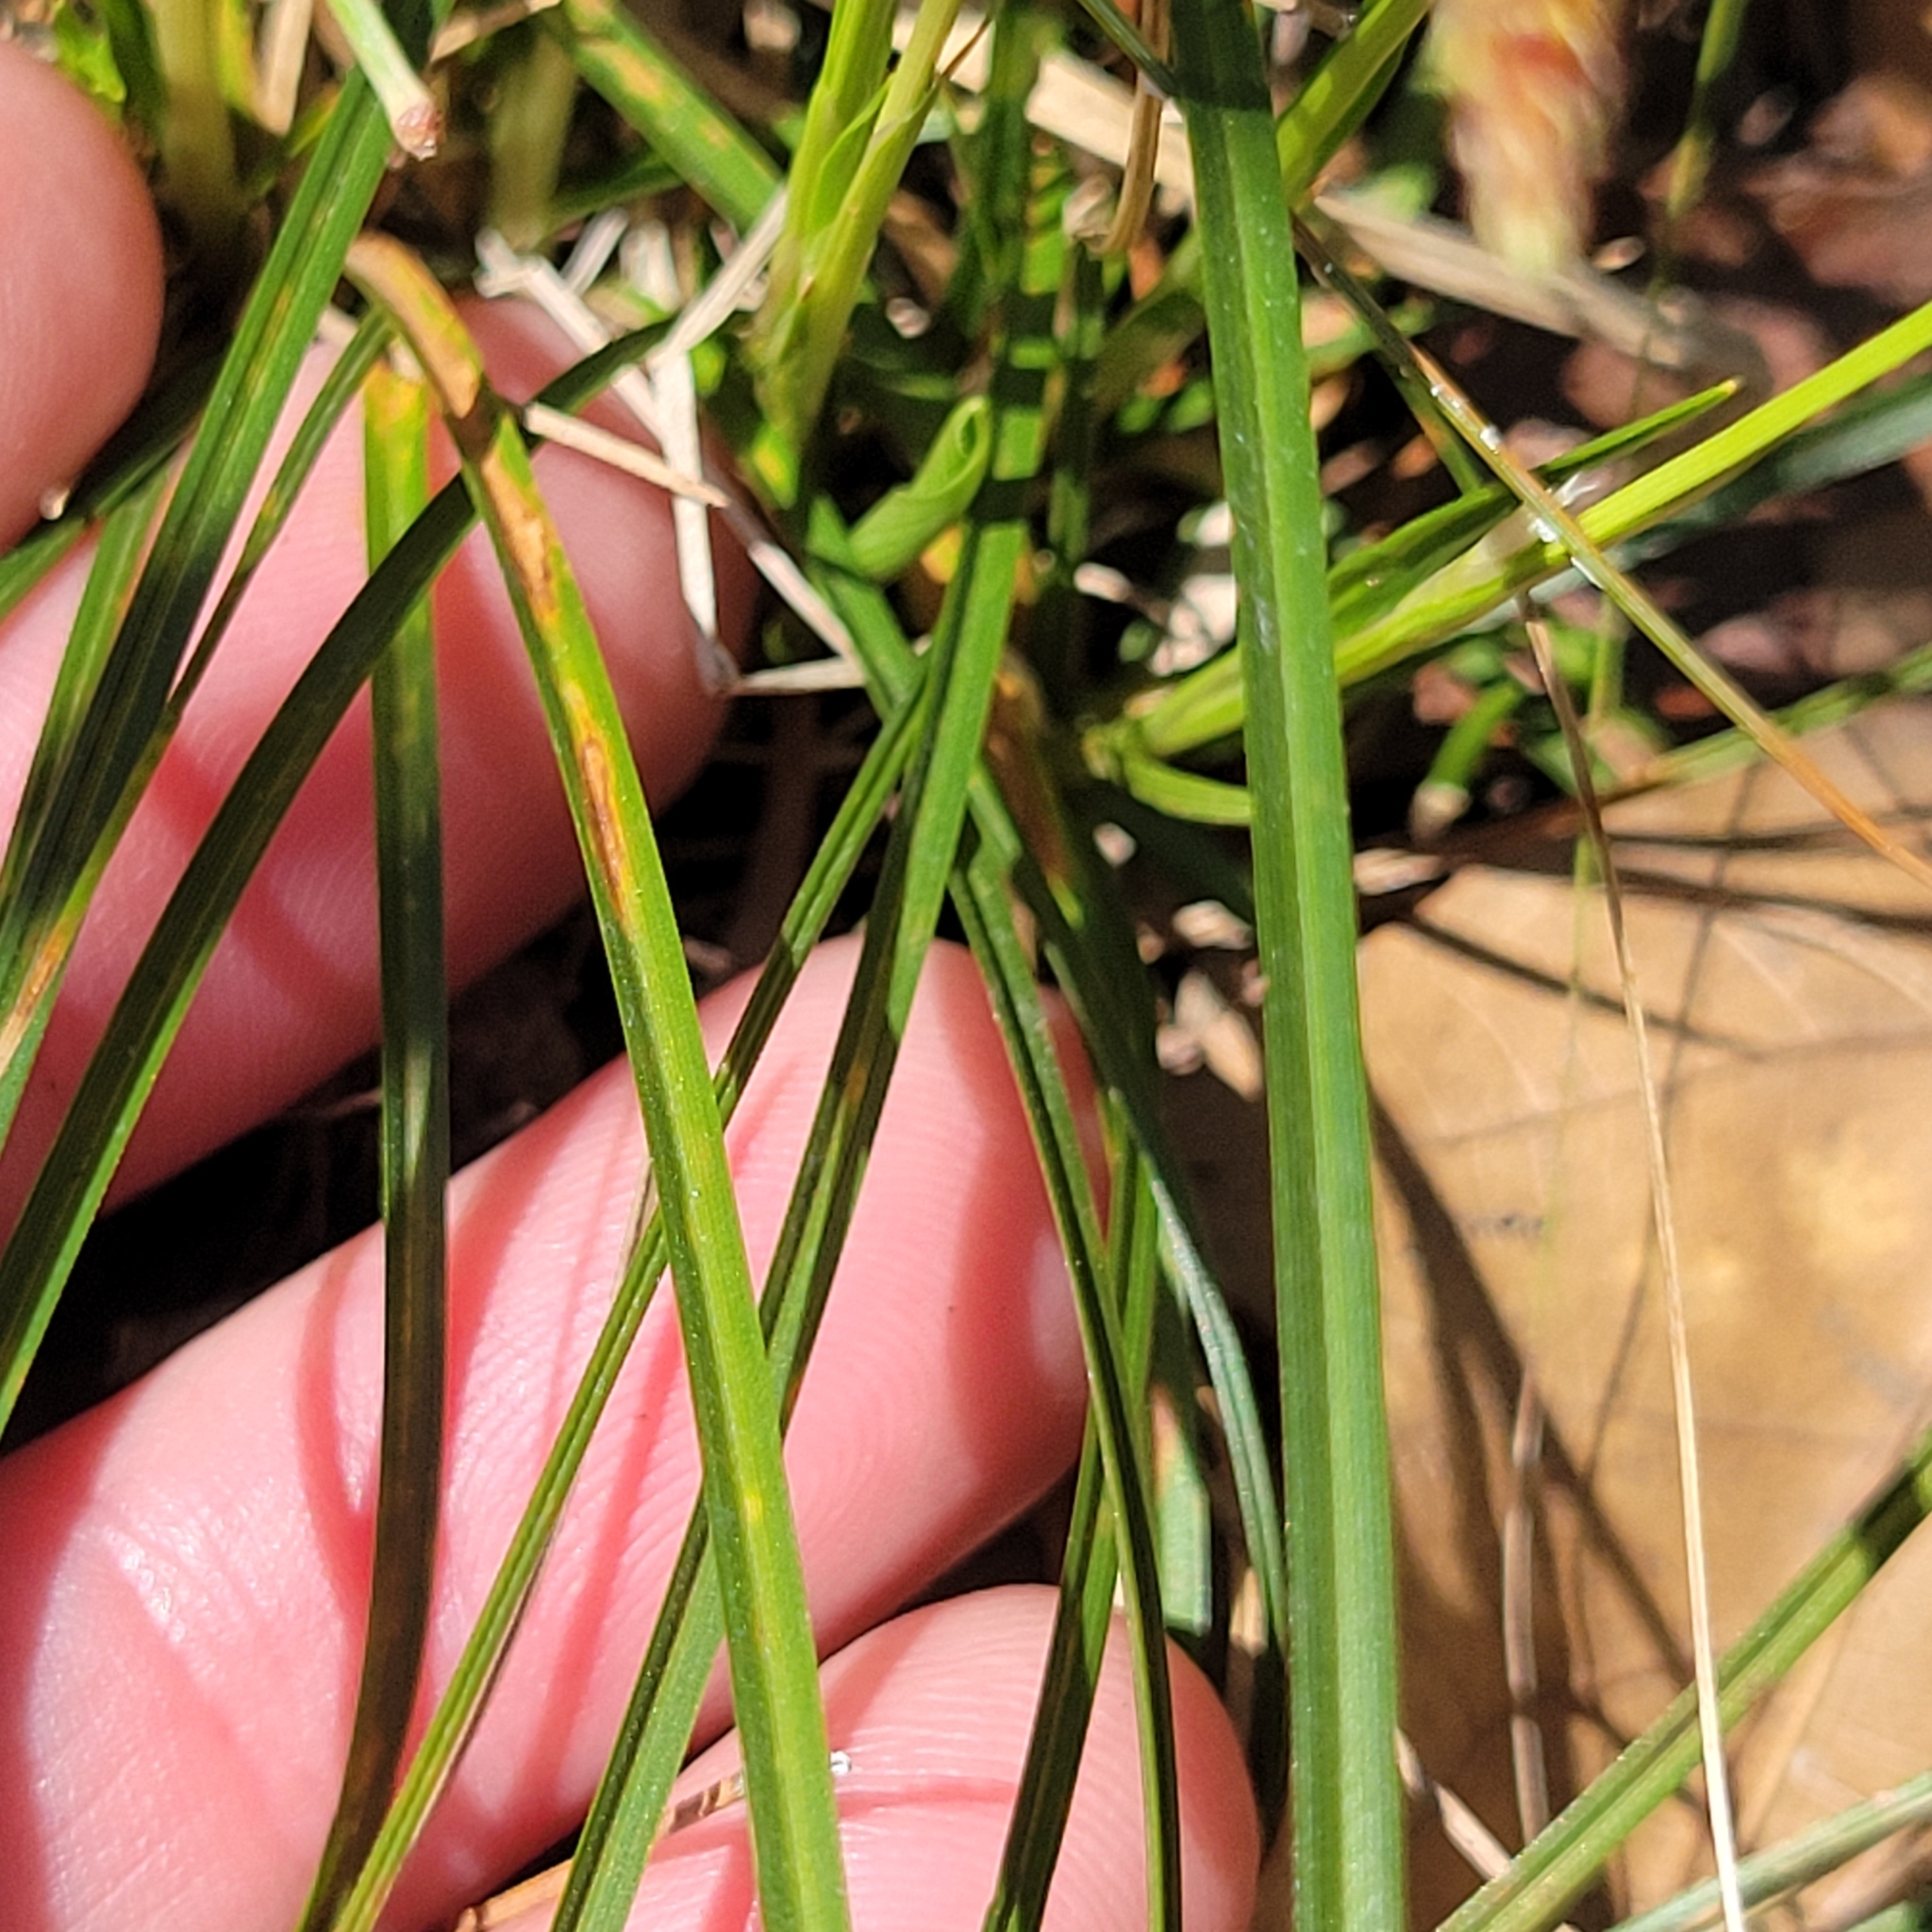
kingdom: Plantae
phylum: Tracheophyta
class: Liliopsida
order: Poales
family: Cyperaceae
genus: Carex
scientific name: Carex pensylvanica
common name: Common oak sedge
